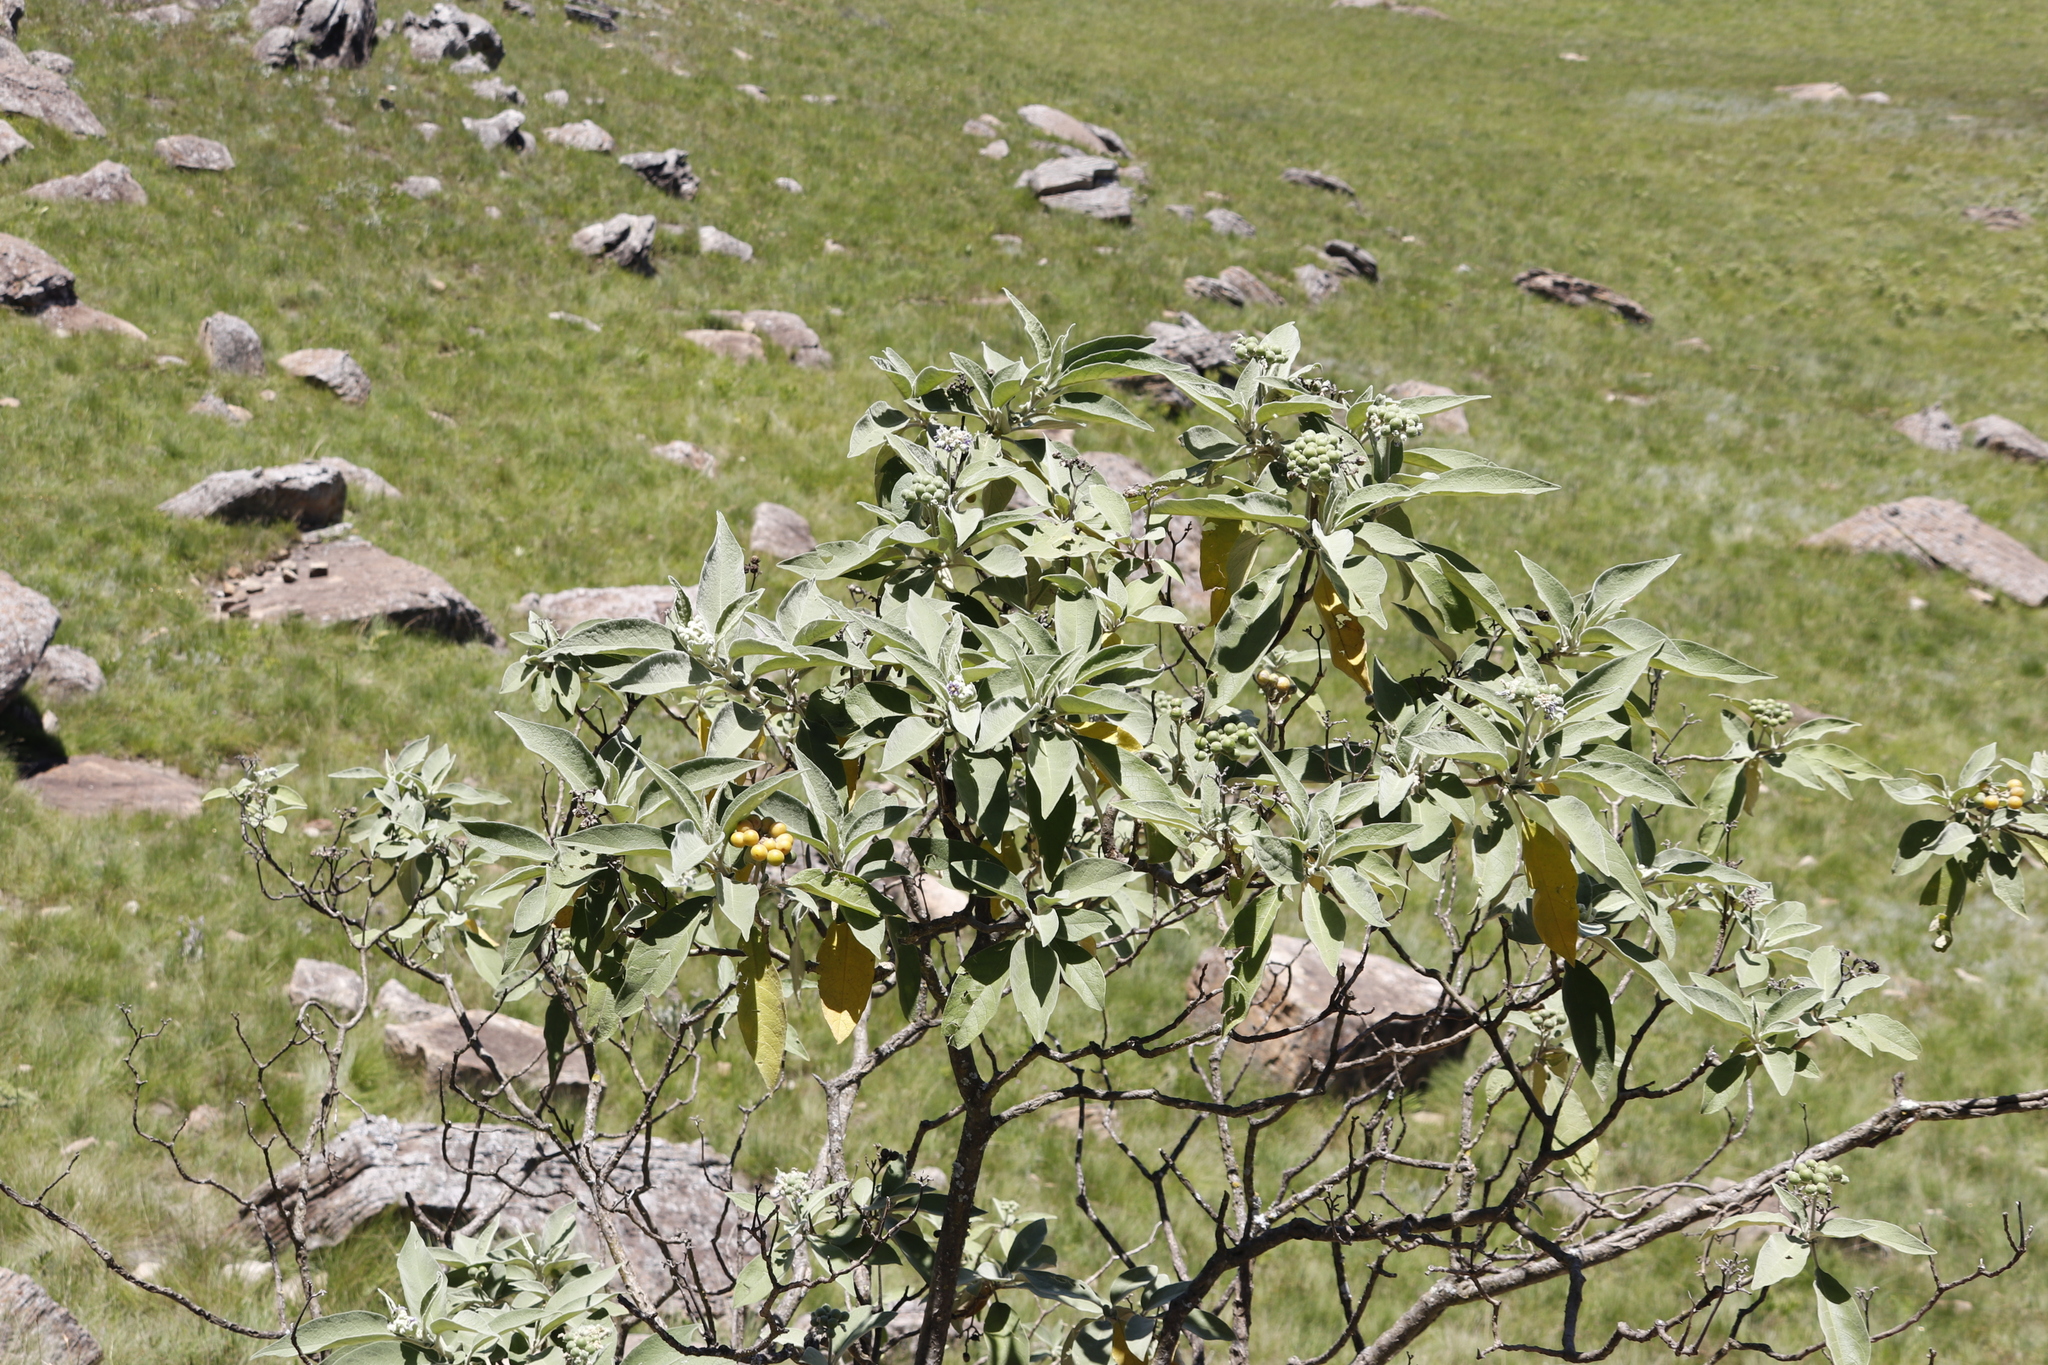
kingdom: Plantae
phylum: Tracheophyta
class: Magnoliopsida
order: Solanales
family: Solanaceae
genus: Solanum
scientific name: Solanum mauritianum
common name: Earleaf nightshade
